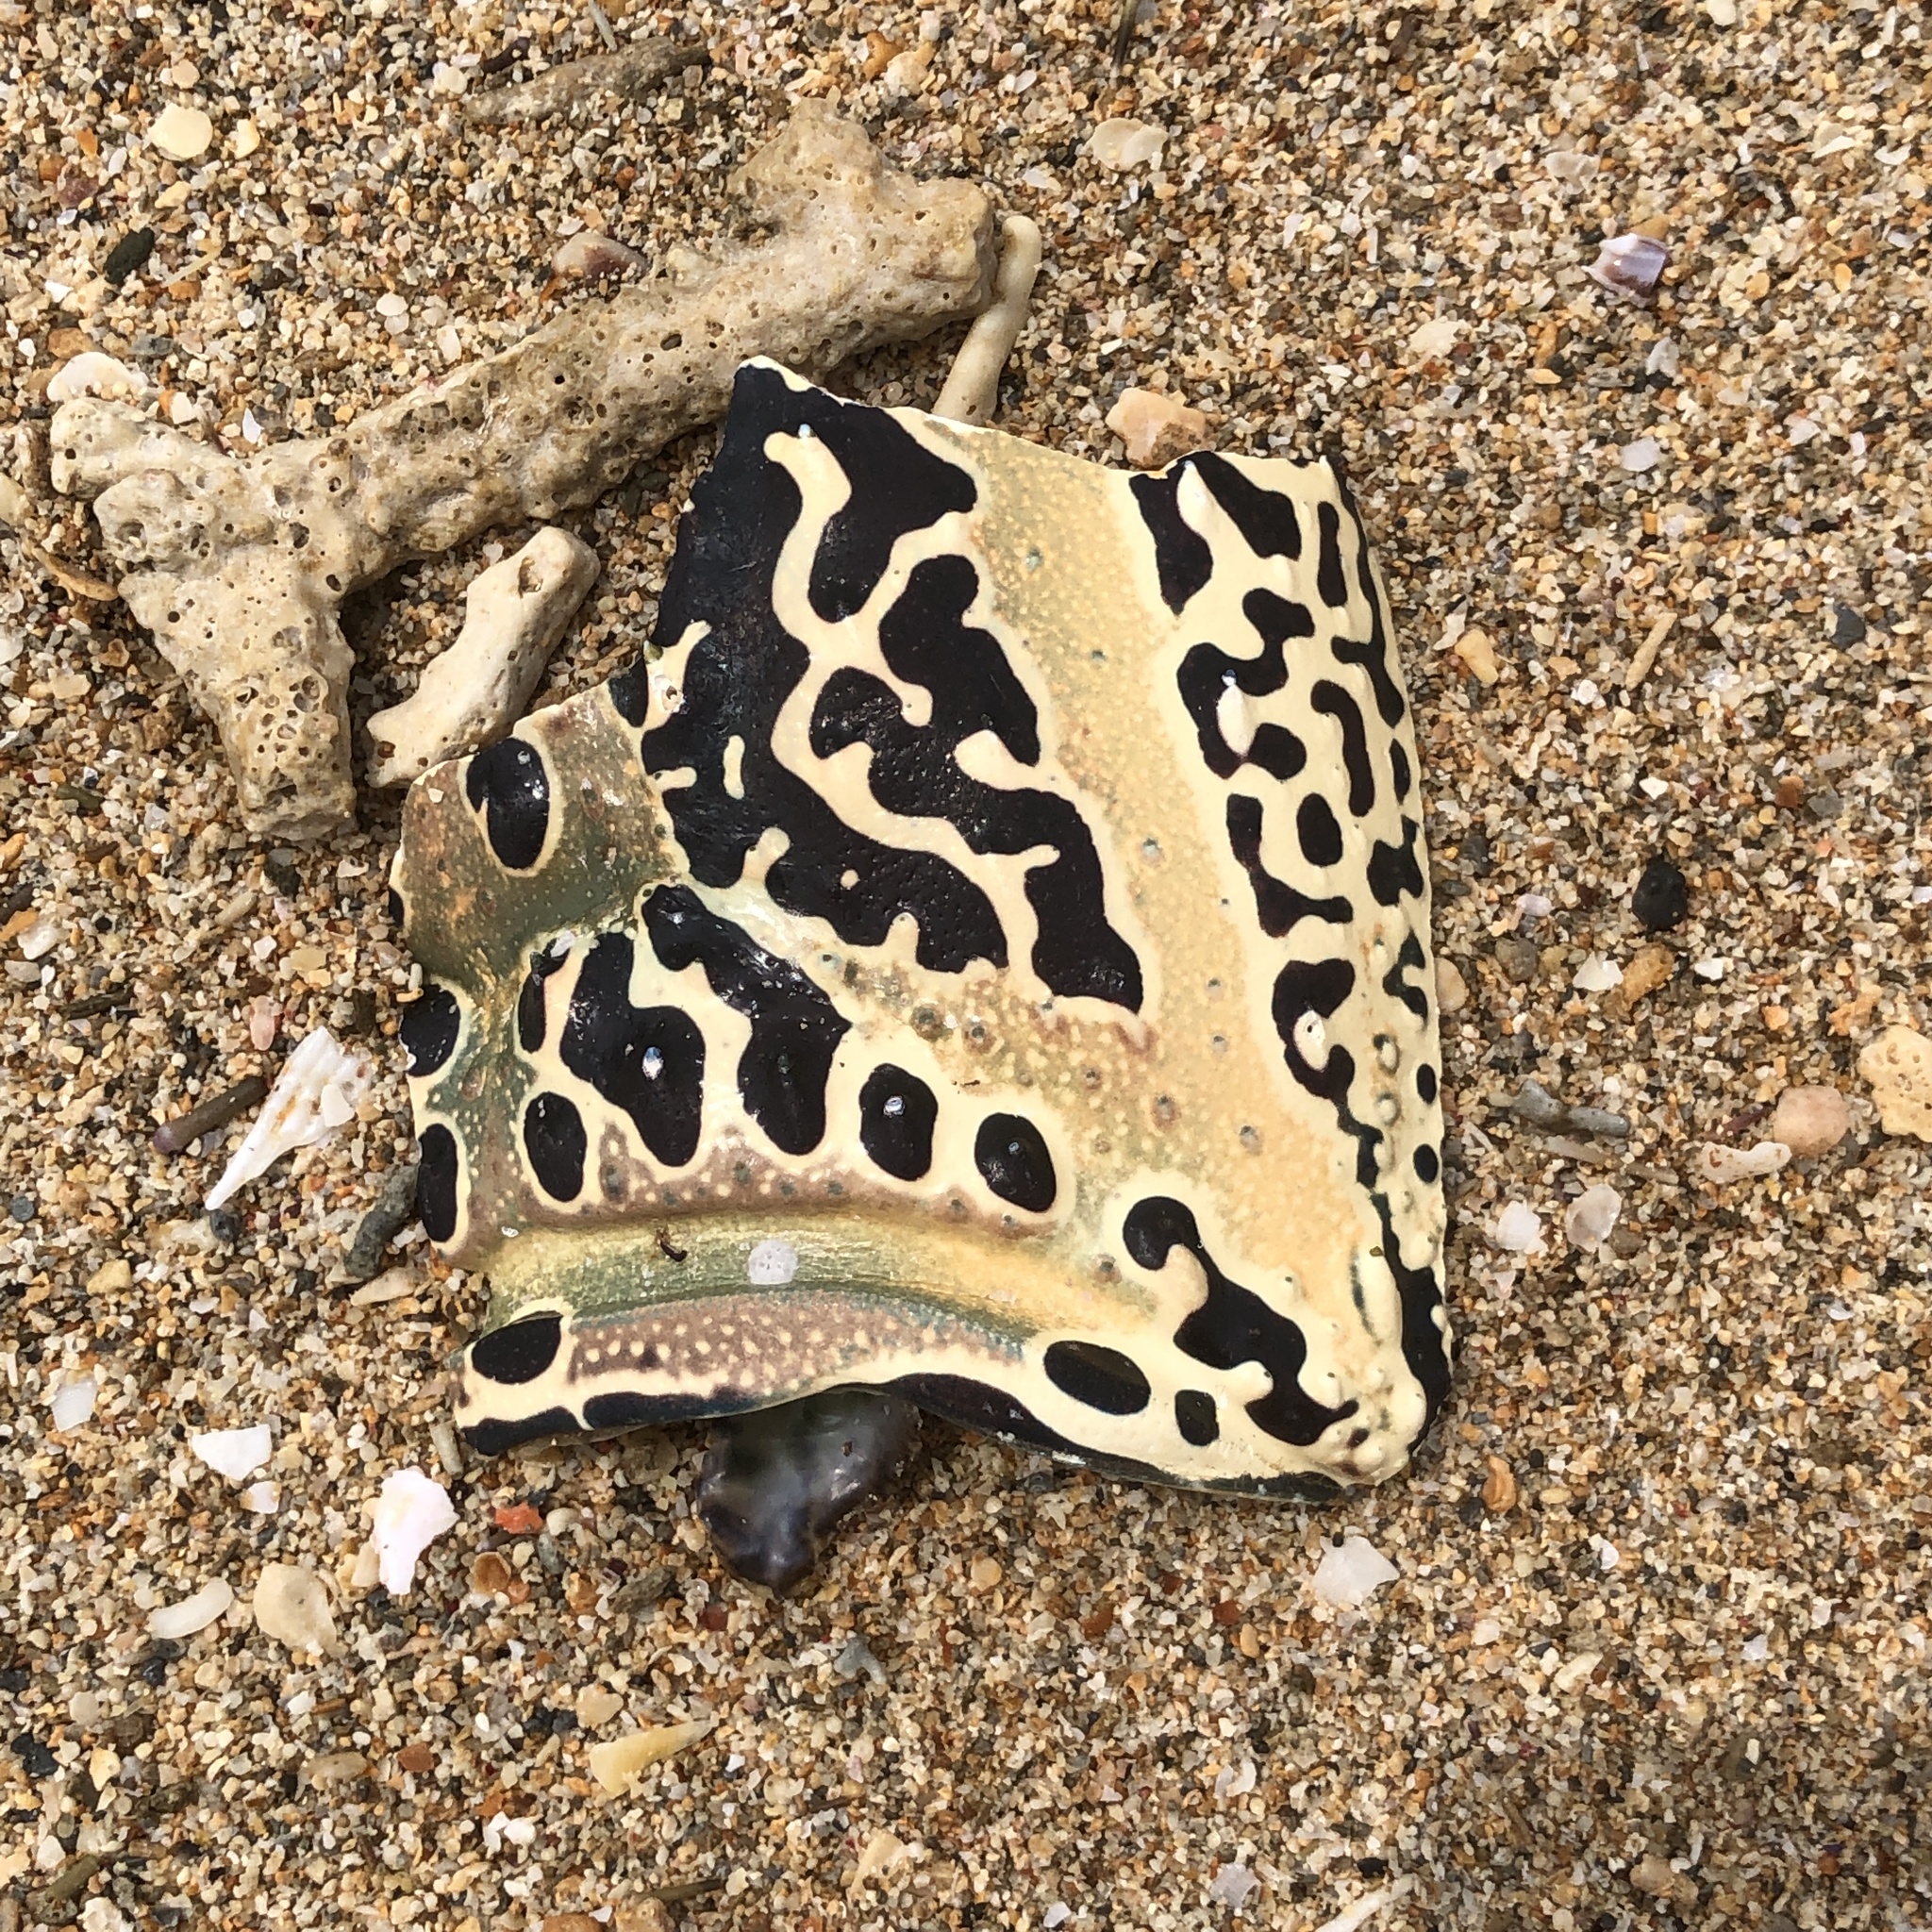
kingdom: Animalia
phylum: Arthropoda
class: Malacostraca
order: Decapoda
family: Palinuridae
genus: Panulirus
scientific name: Panulirus versicolor
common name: Painted spiny lobster
